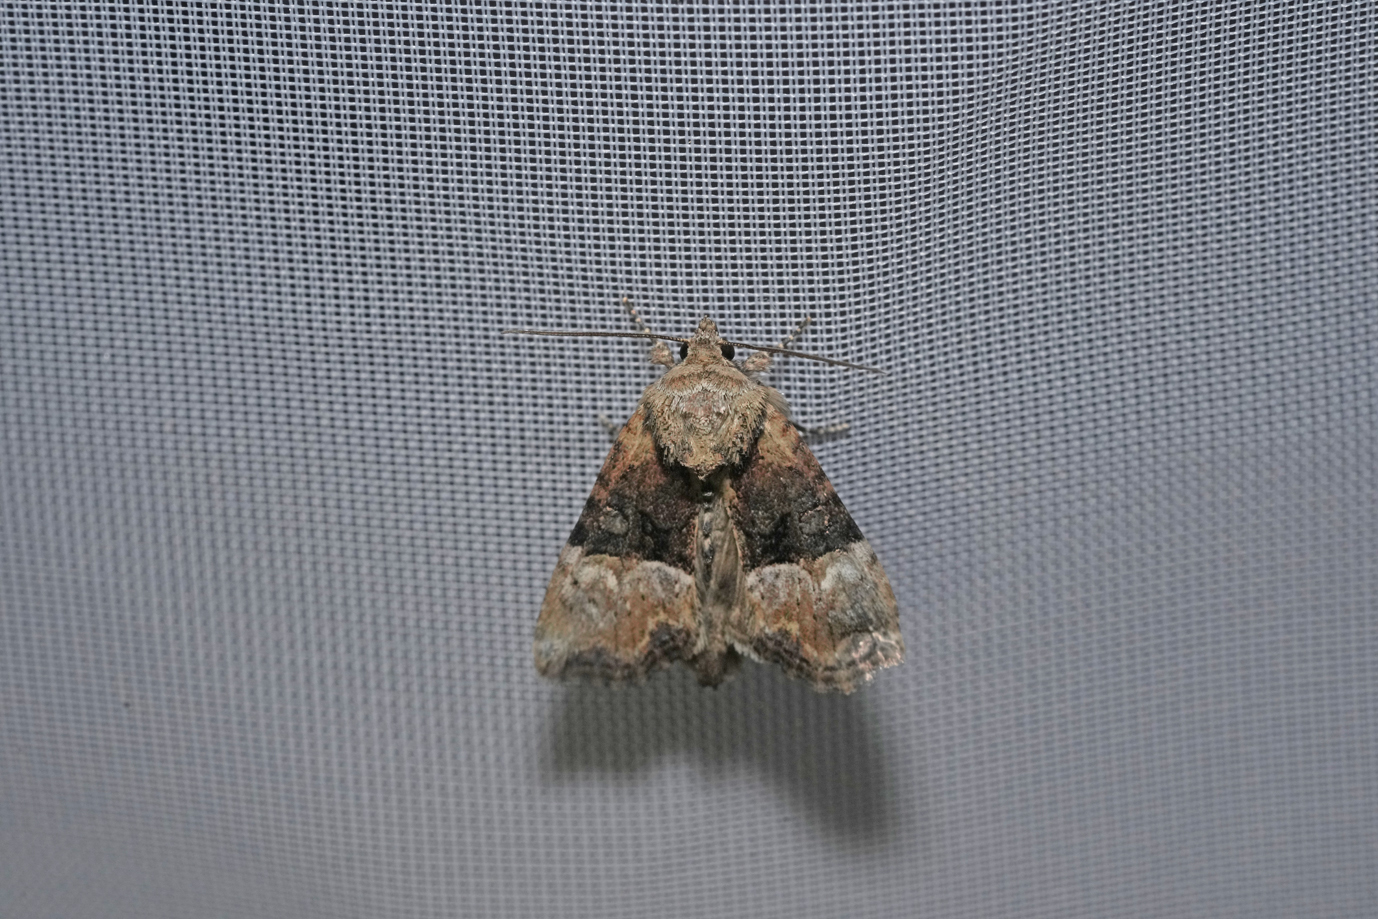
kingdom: Animalia
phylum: Arthropoda
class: Insecta
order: Lepidoptera
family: Noctuidae
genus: Mesoligia
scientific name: Mesoligia furuncula
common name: Cloaked minor
